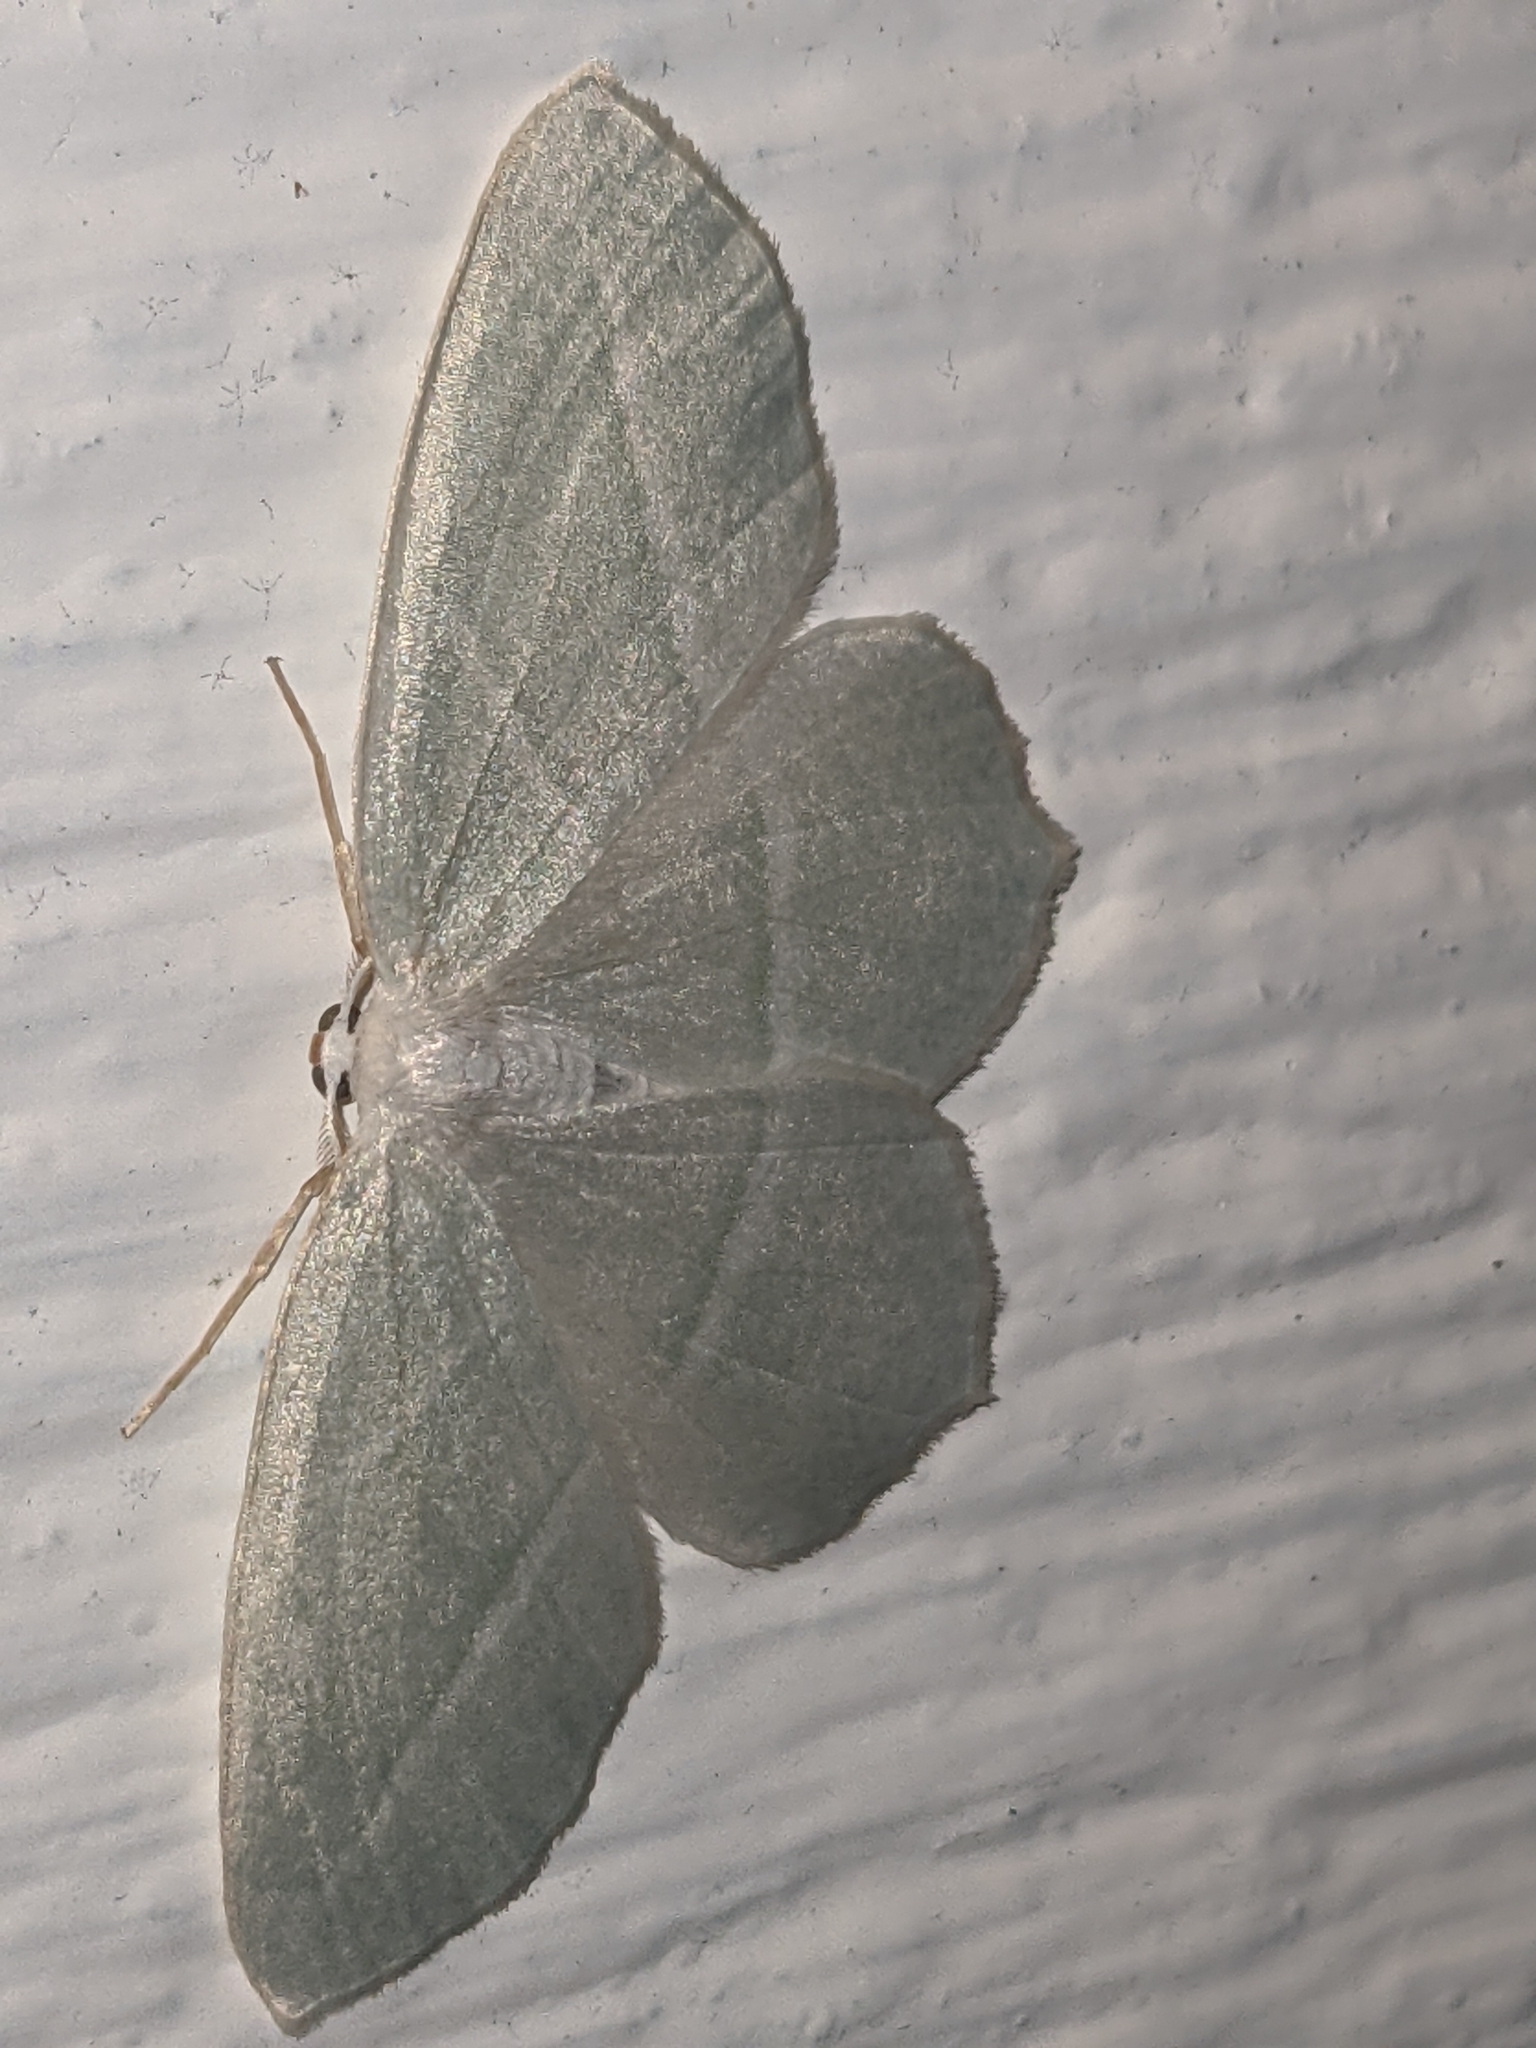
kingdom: Animalia
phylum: Arthropoda
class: Insecta
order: Lepidoptera
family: Geometridae
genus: Campaea
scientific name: Campaea perlata
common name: Fringed looper
